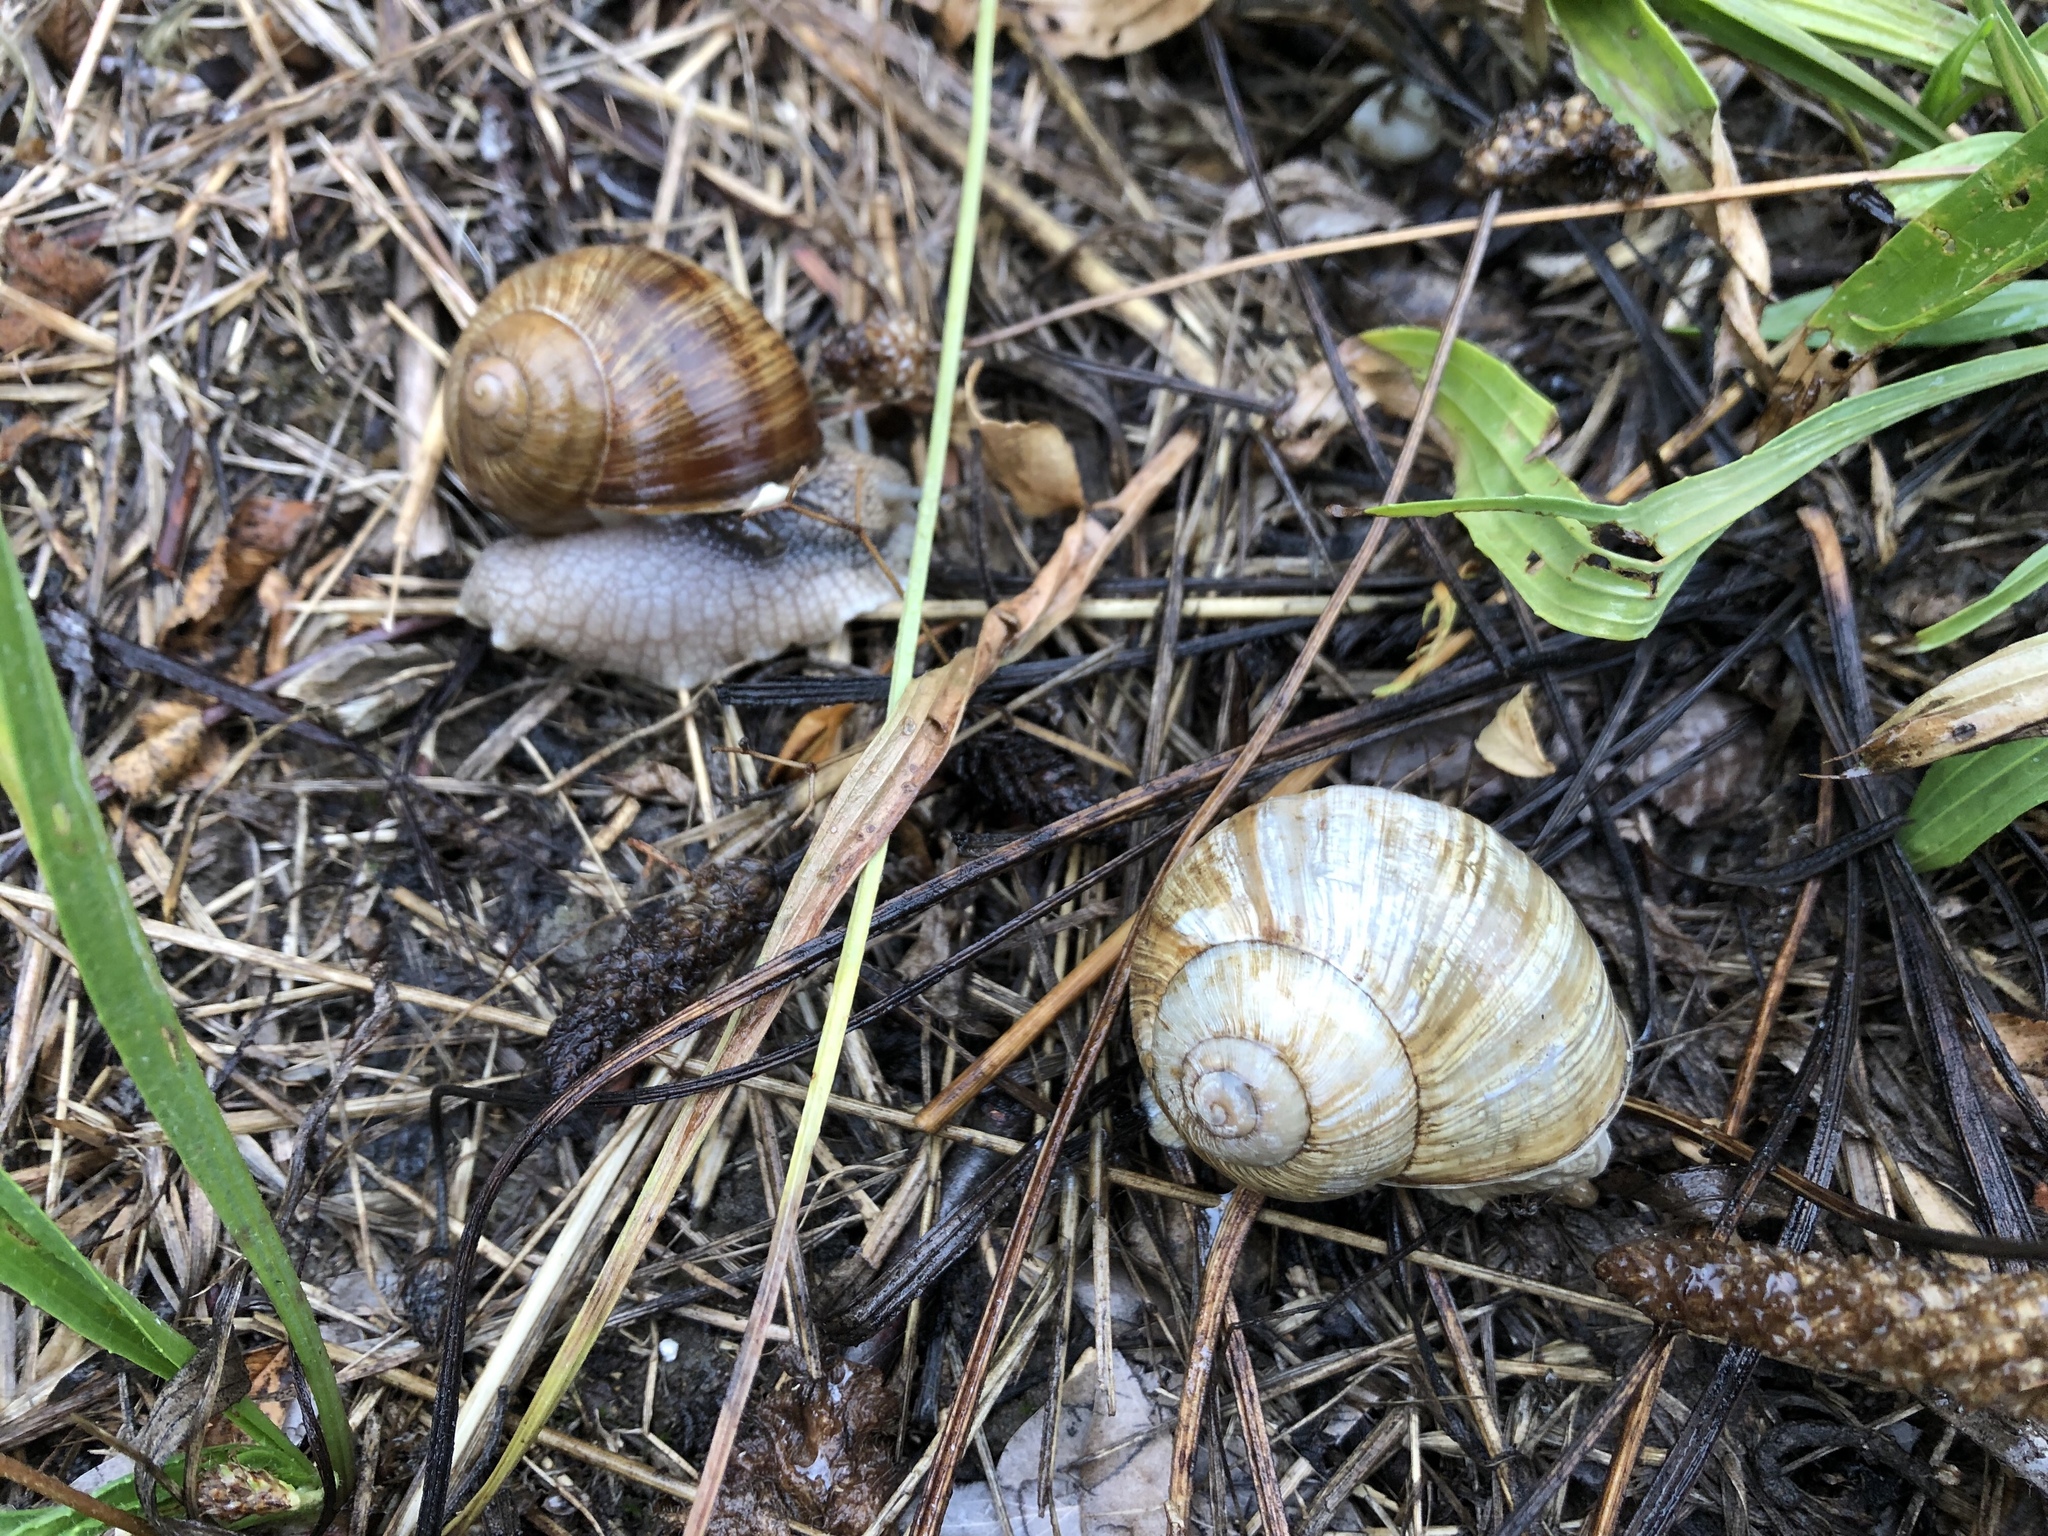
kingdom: Animalia
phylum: Mollusca
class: Gastropoda
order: Stylommatophora
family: Helicidae
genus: Helix
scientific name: Helix pomatia
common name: Roman snail
